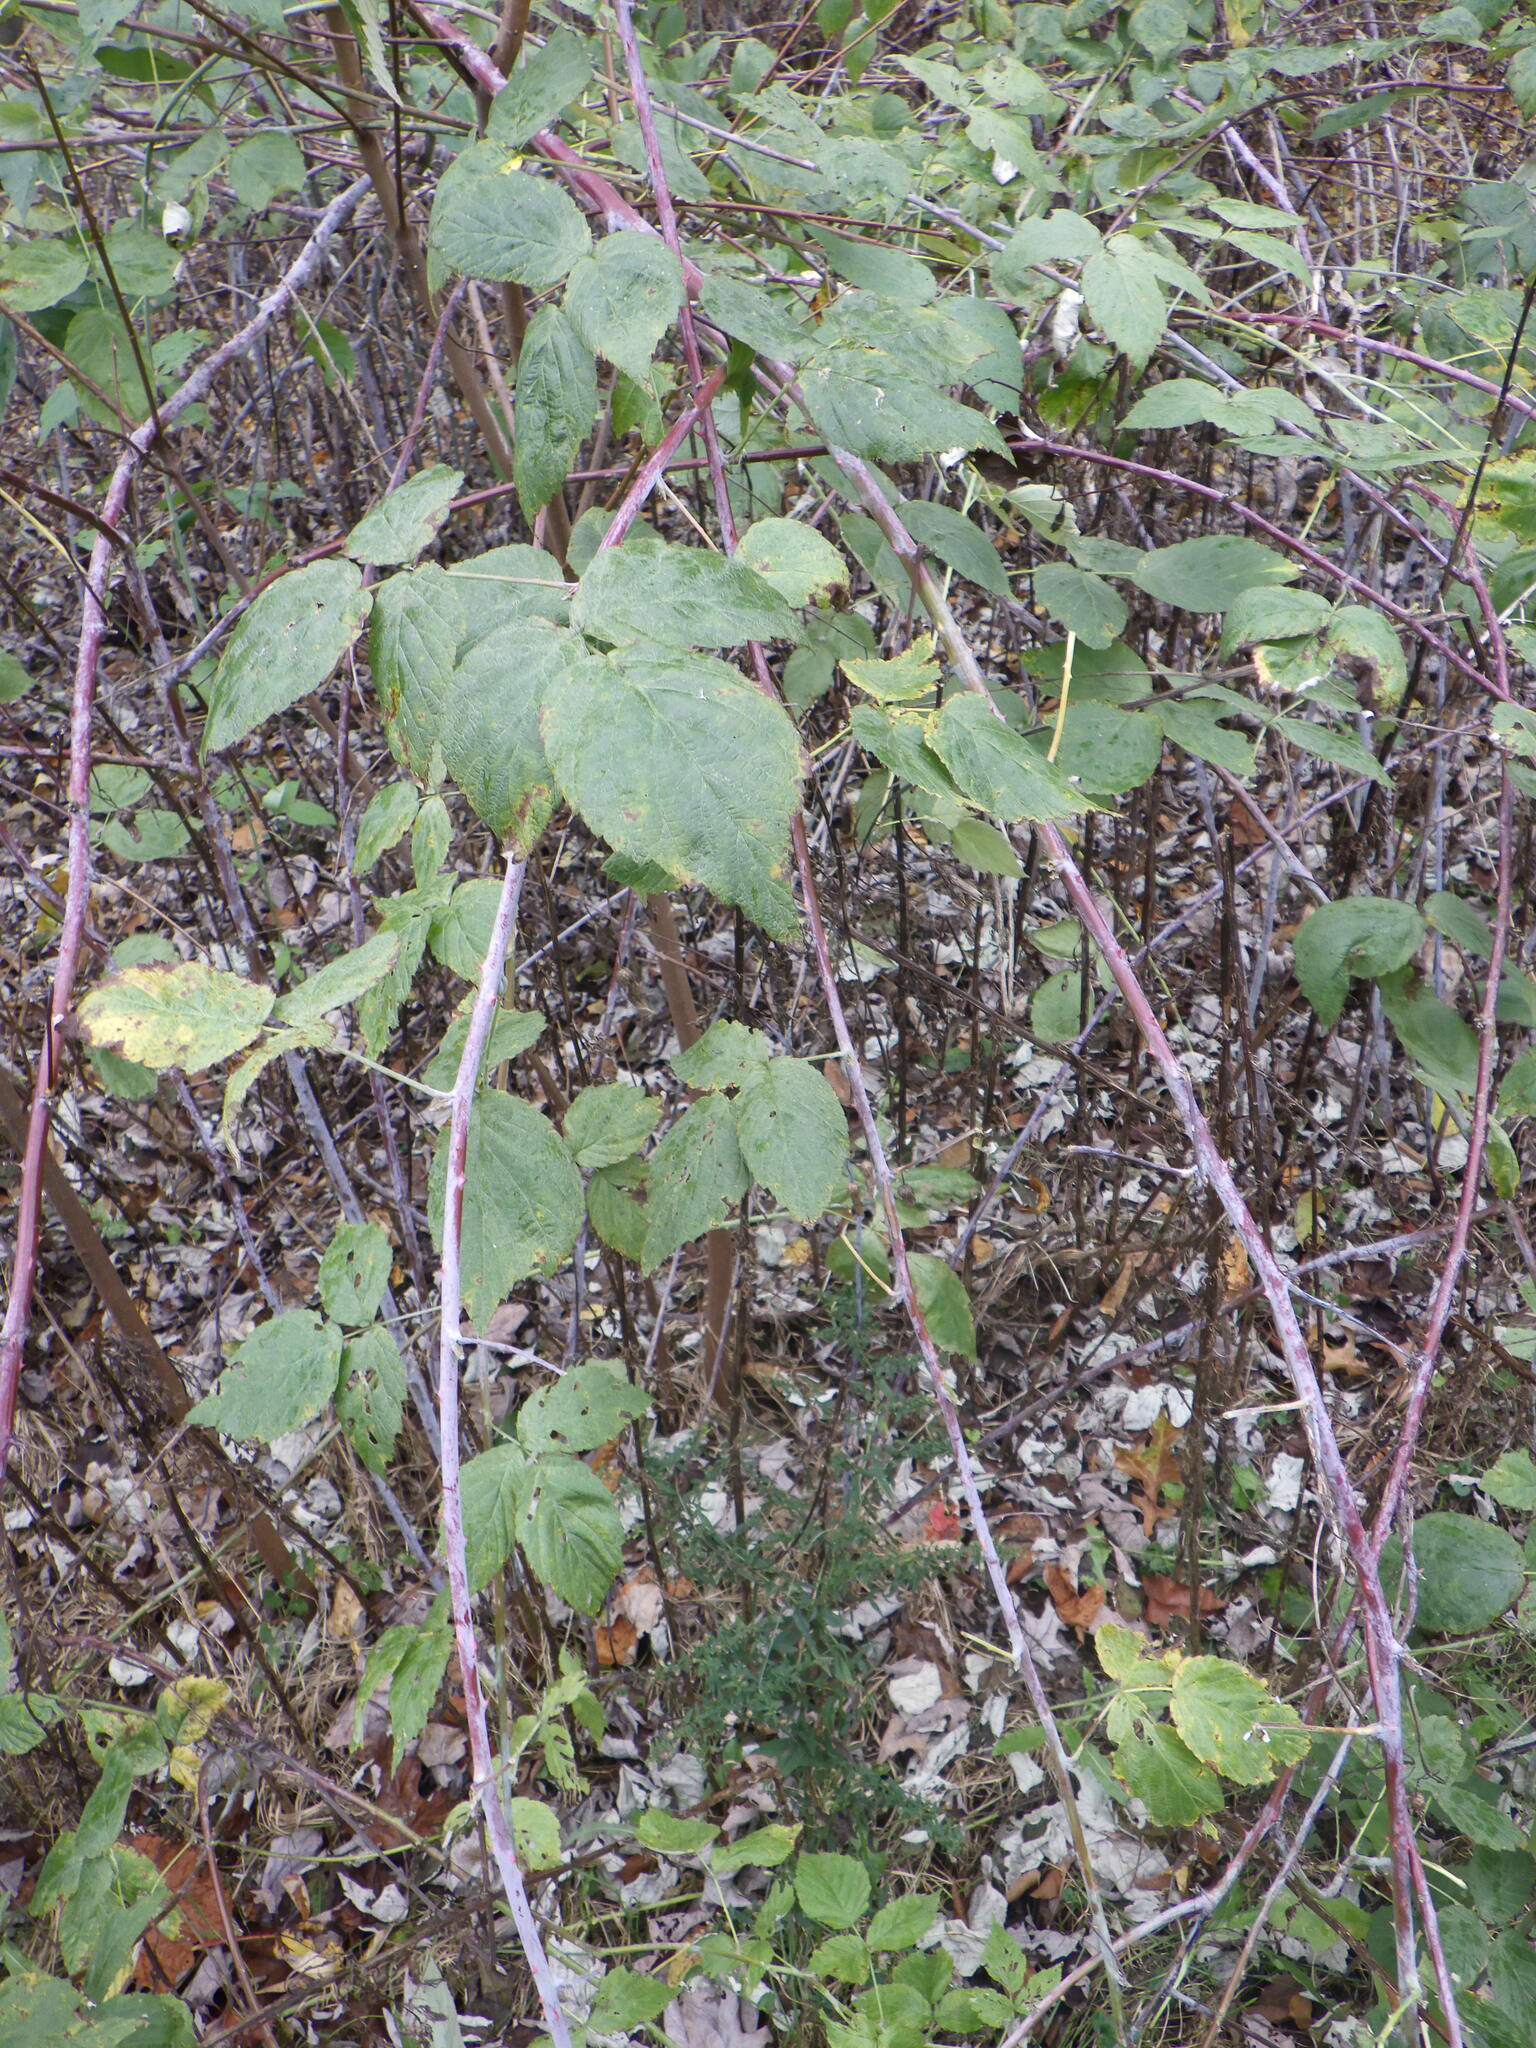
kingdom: Plantae
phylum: Tracheophyta
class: Magnoliopsida
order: Rosales
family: Rosaceae
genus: Rubus
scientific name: Rubus occidentalis
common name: Black raspberry
